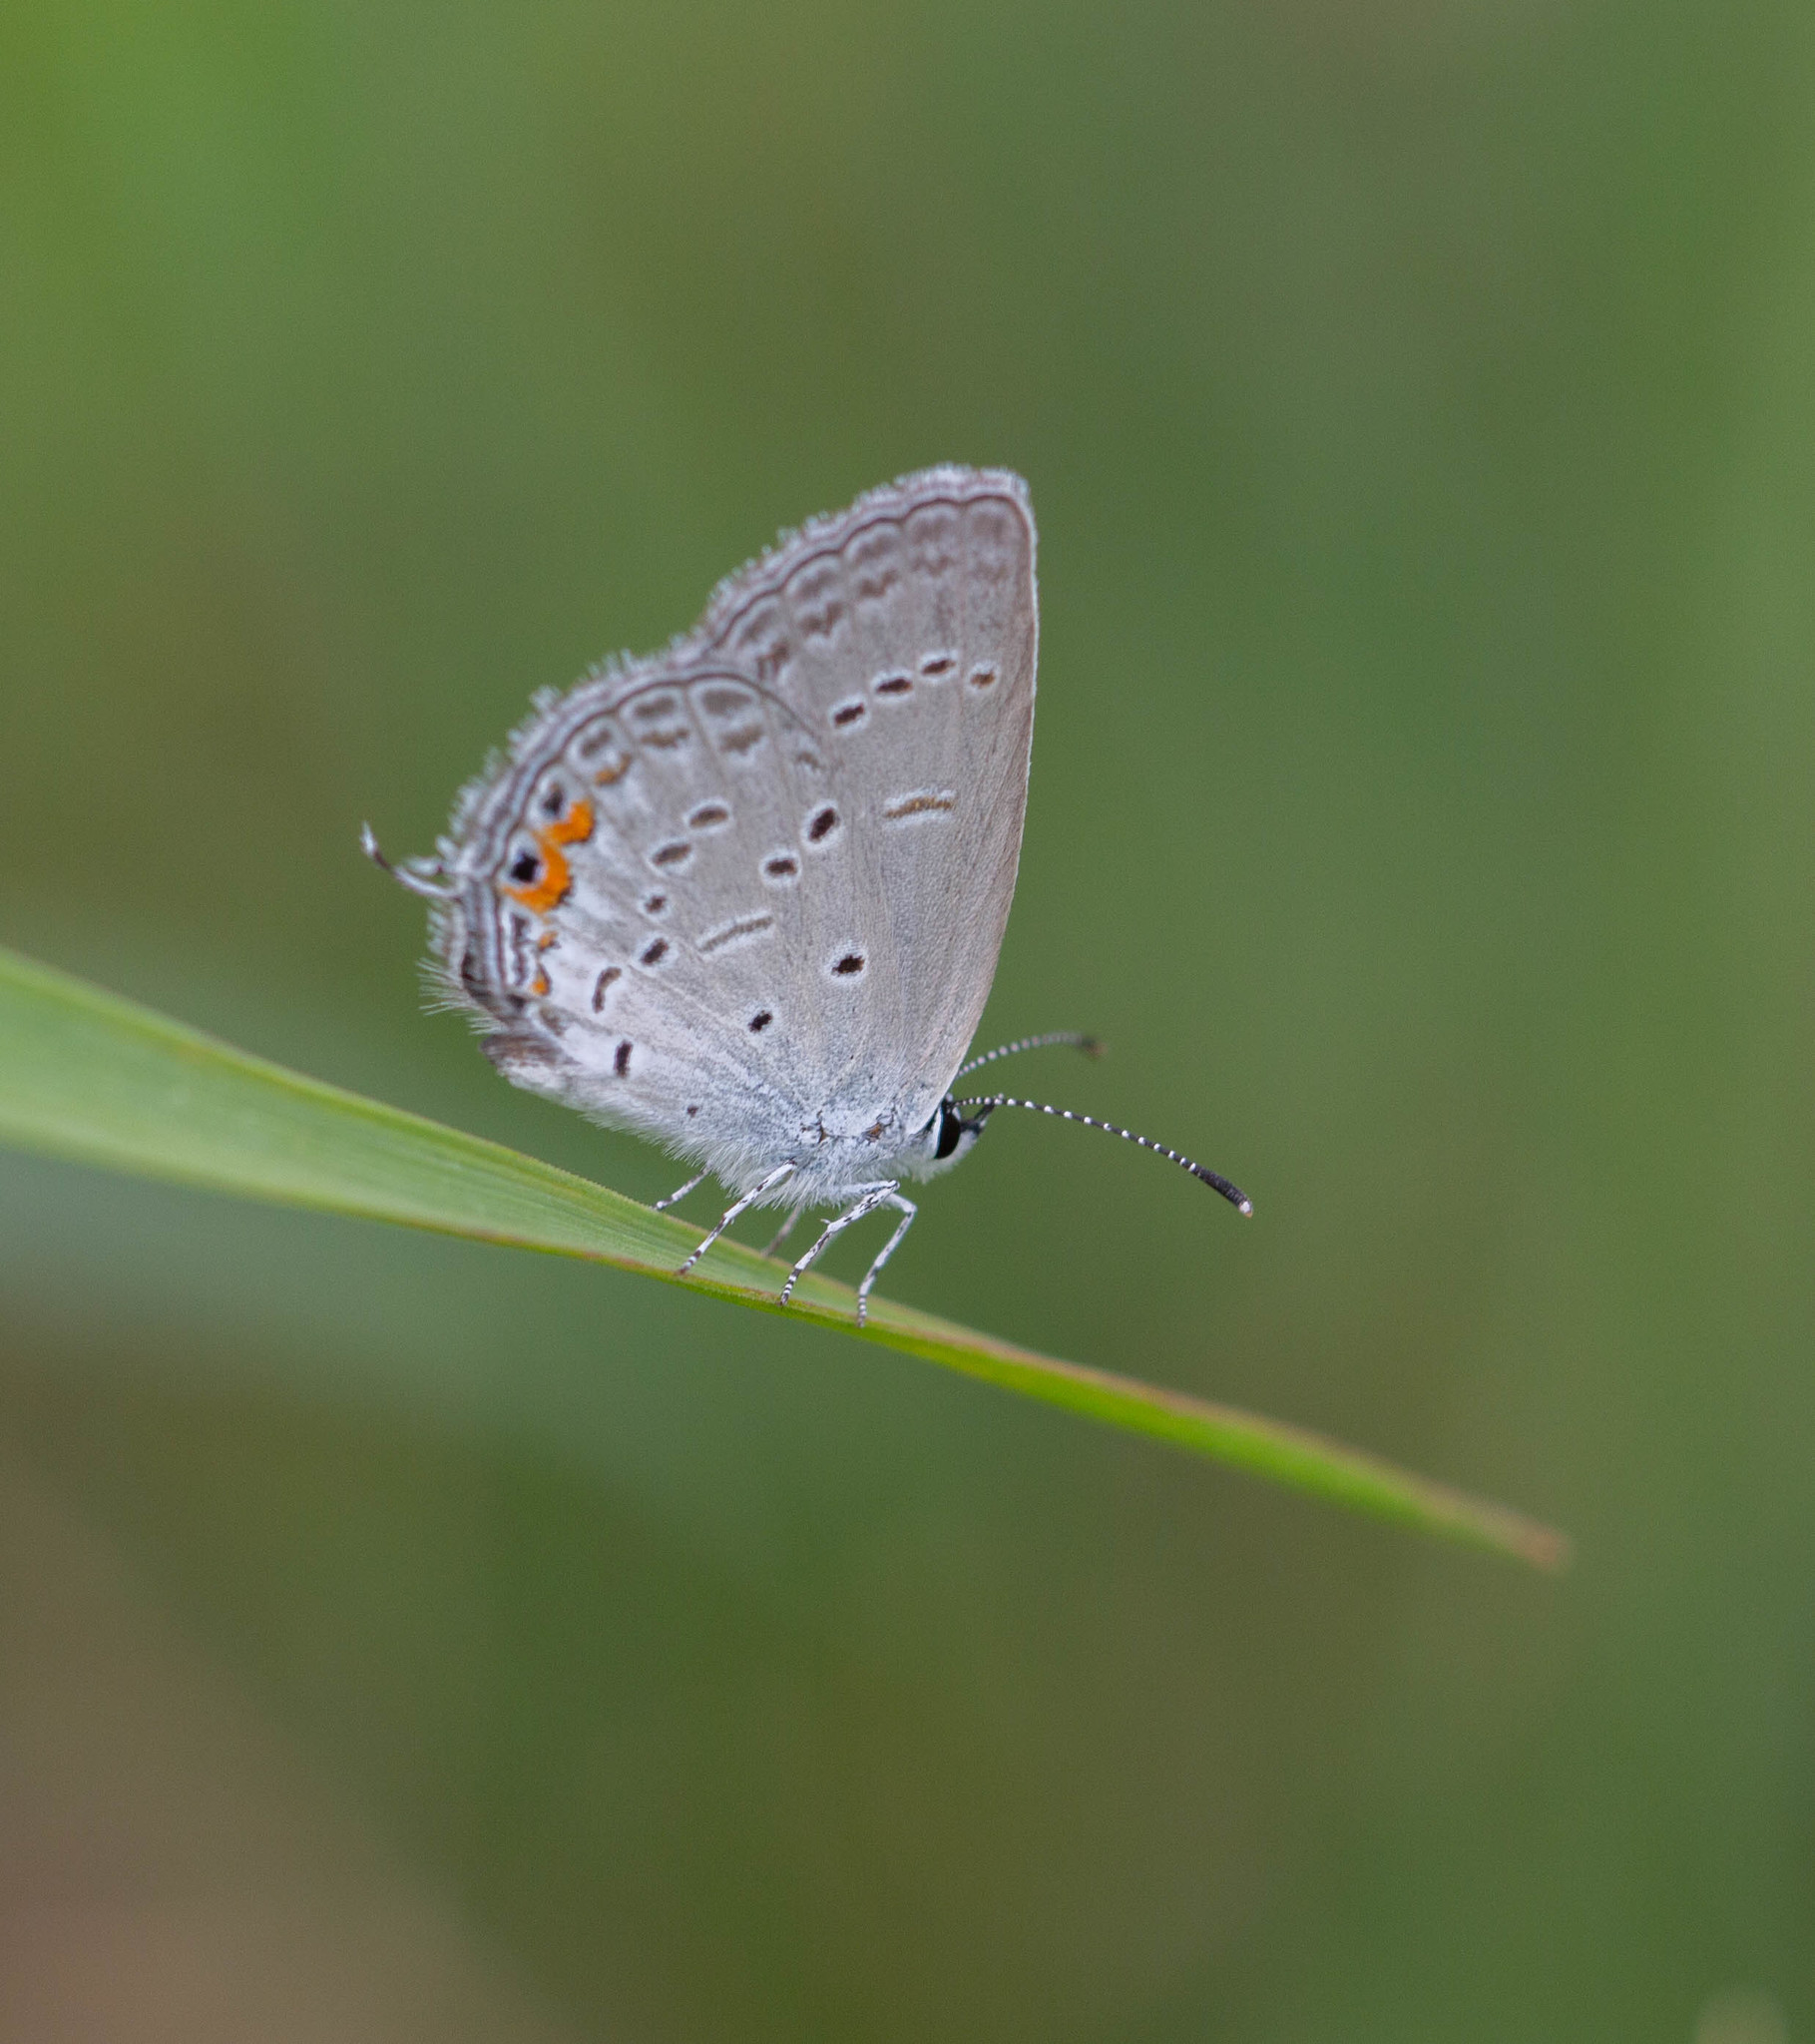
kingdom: Animalia
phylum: Arthropoda
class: Insecta
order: Lepidoptera
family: Lycaenidae
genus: Elkalyce
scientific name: Elkalyce comyntas
